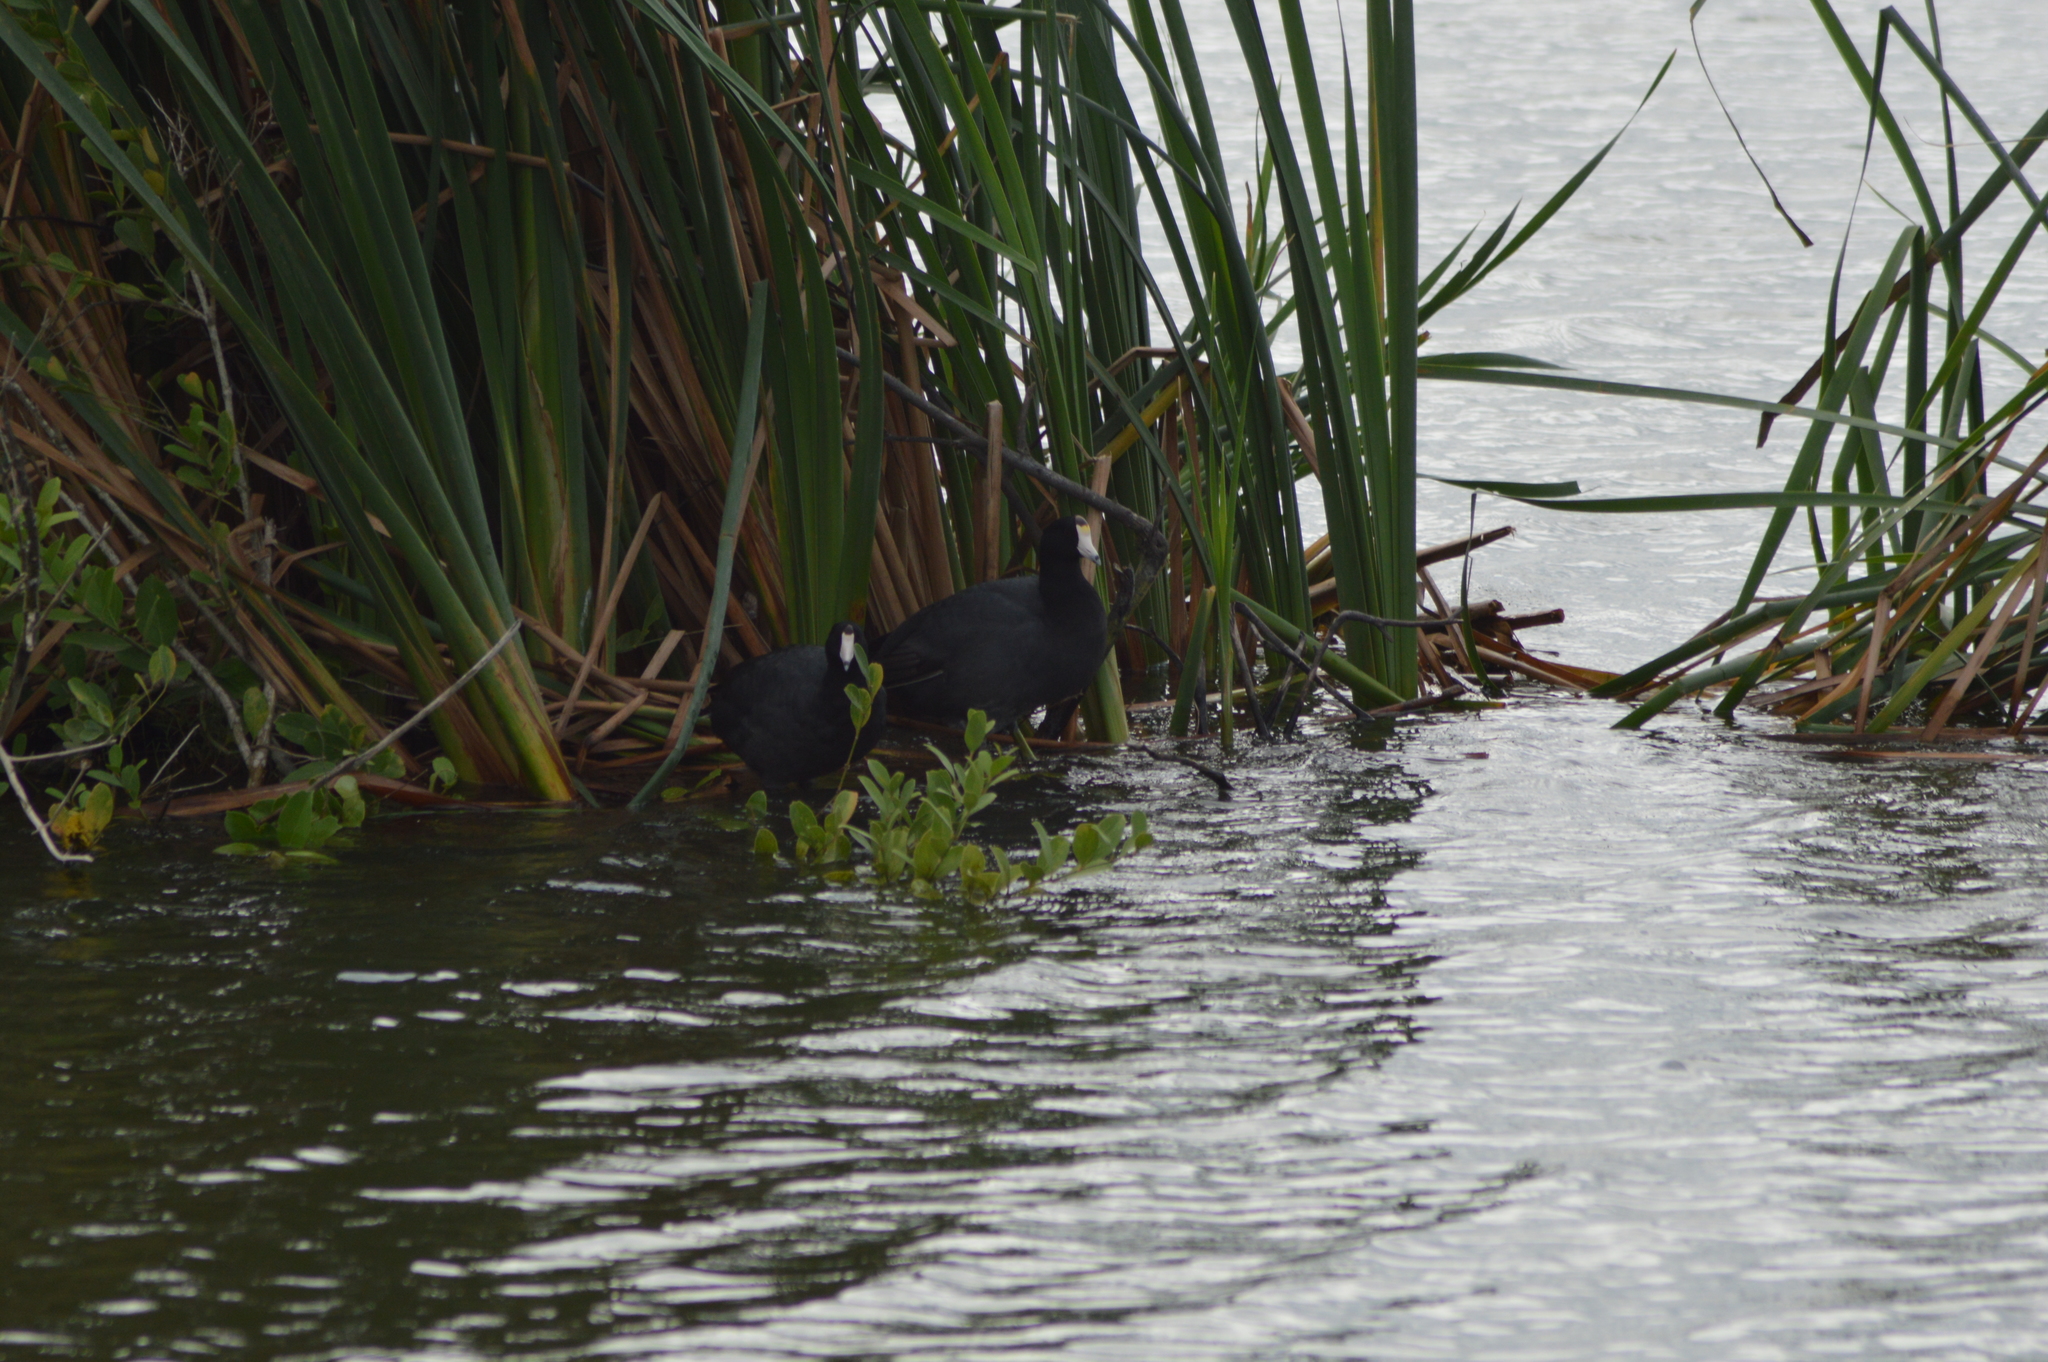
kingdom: Animalia
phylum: Chordata
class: Aves
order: Gruiformes
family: Rallidae
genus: Fulica
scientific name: Fulica americana
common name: American coot
